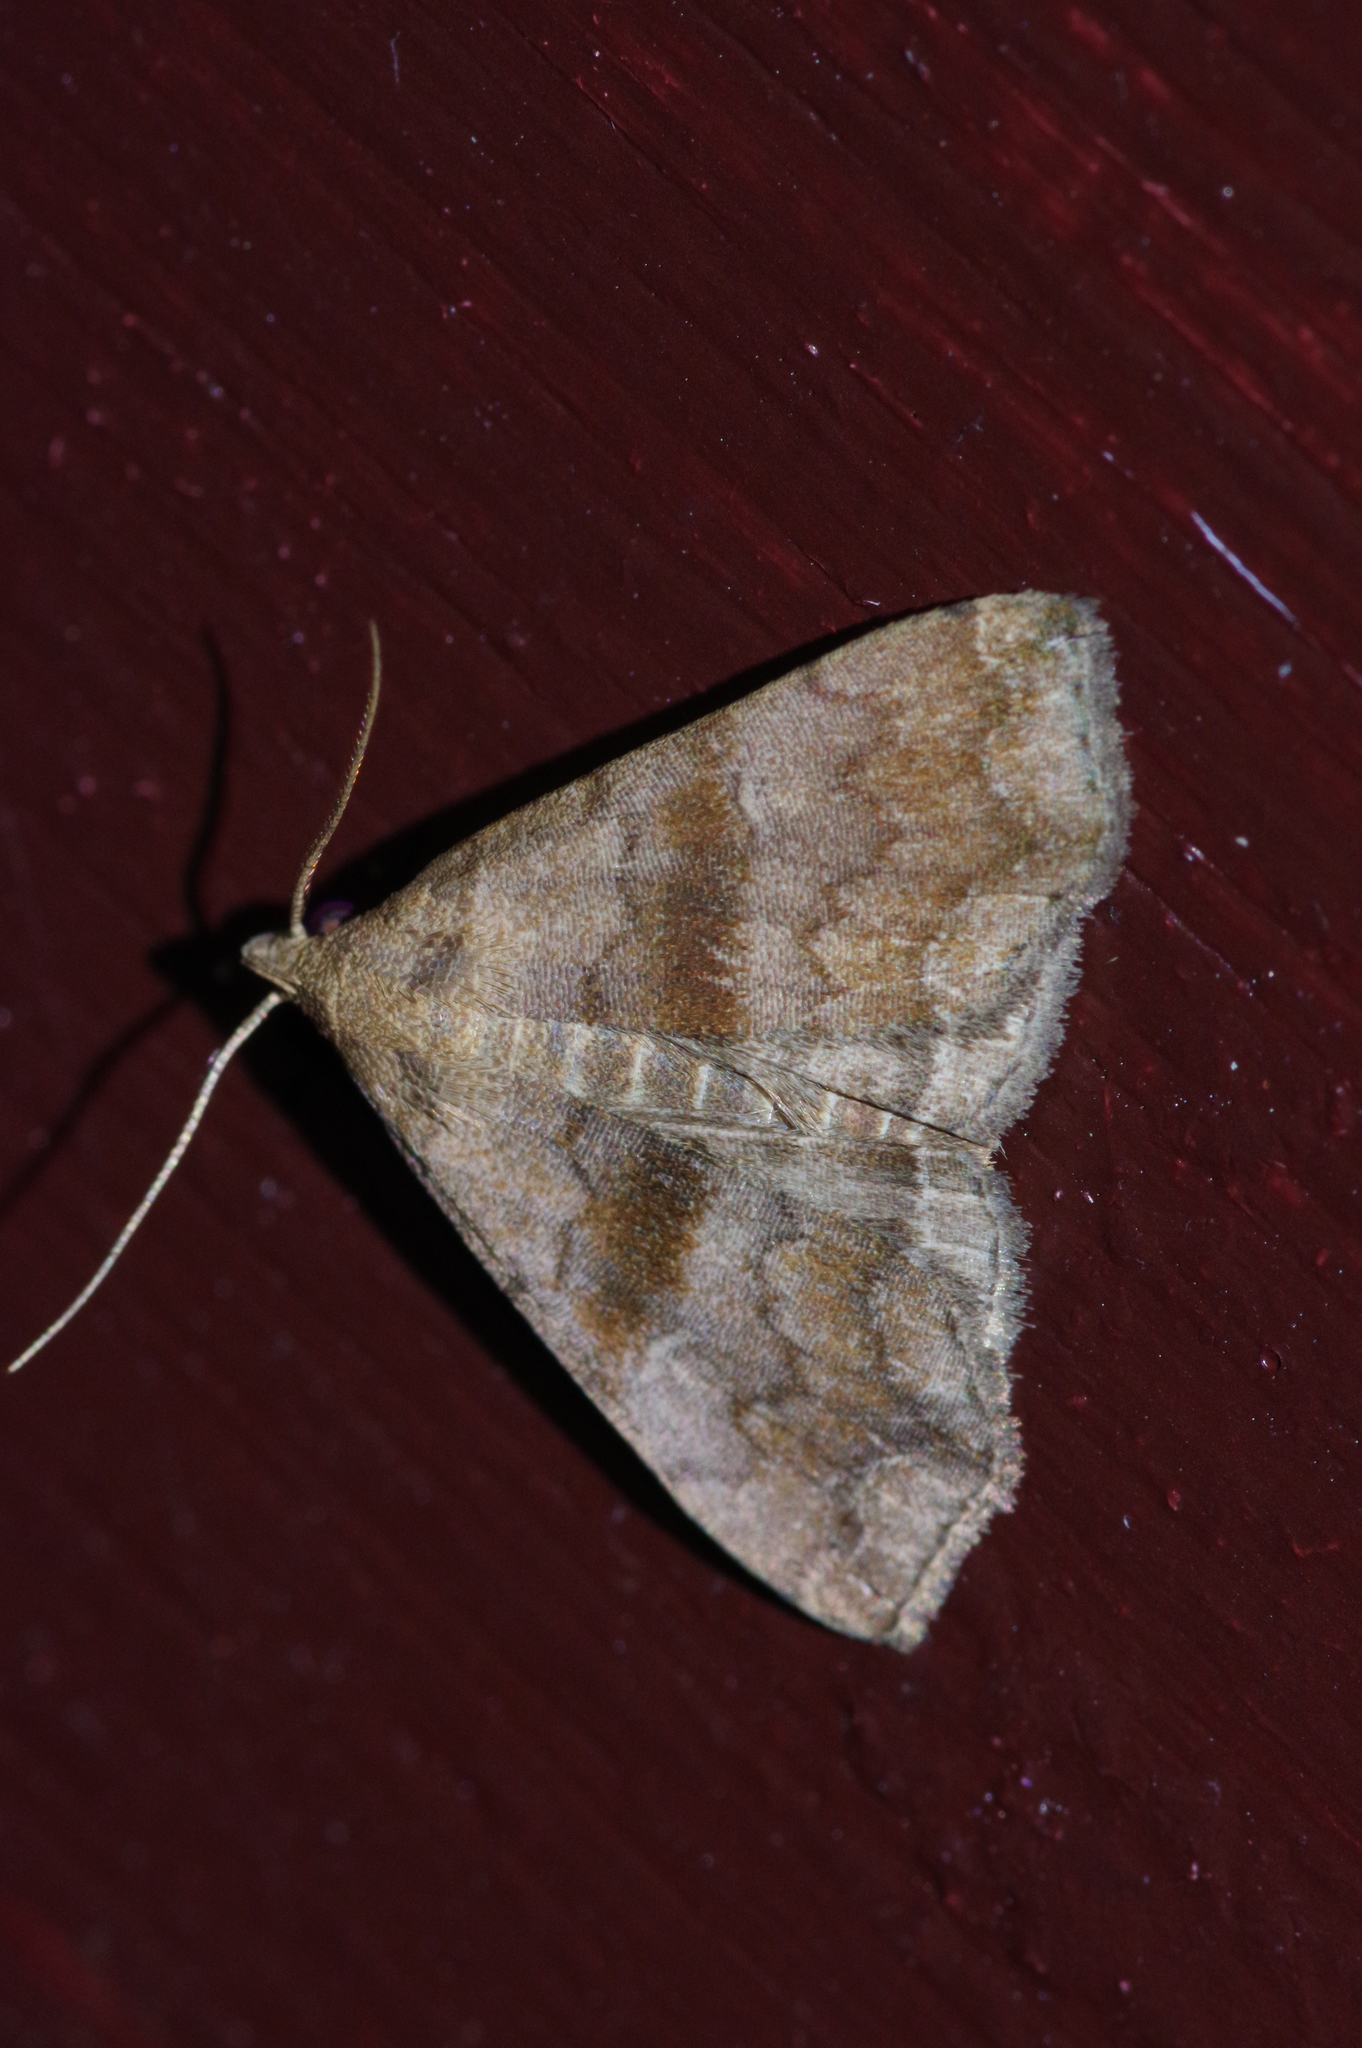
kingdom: Animalia
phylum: Arthropoda
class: Insecta
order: Lepidoptera
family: Erebidae
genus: Polypogon
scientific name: Polypogon Hipoepa fractalis
